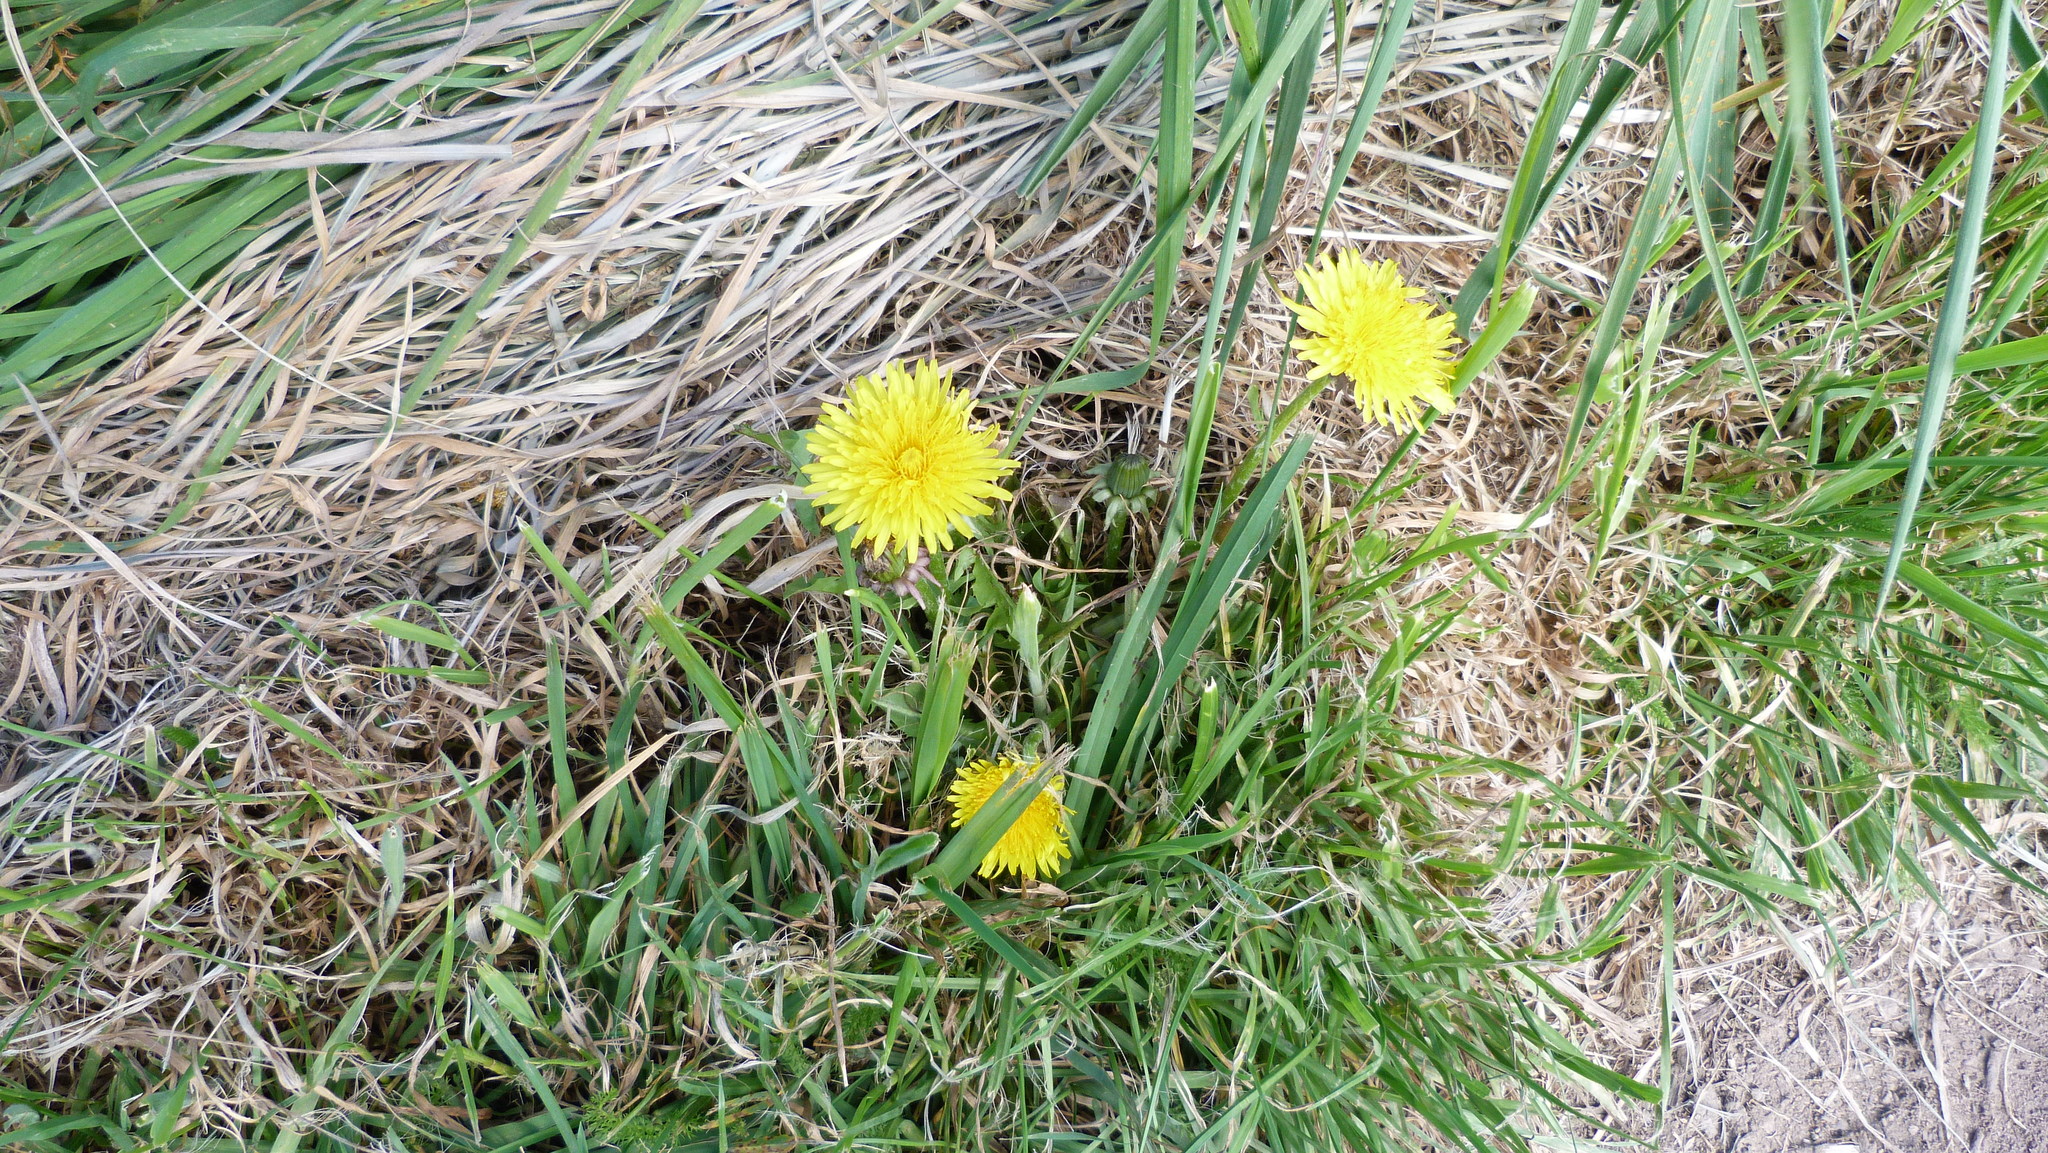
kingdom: Plantae
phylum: Tracheophyta
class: Magnoliopsida
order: Asterales
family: Asteraceae
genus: Taraxacum
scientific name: Taraxacum officinale
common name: Common dandelion
